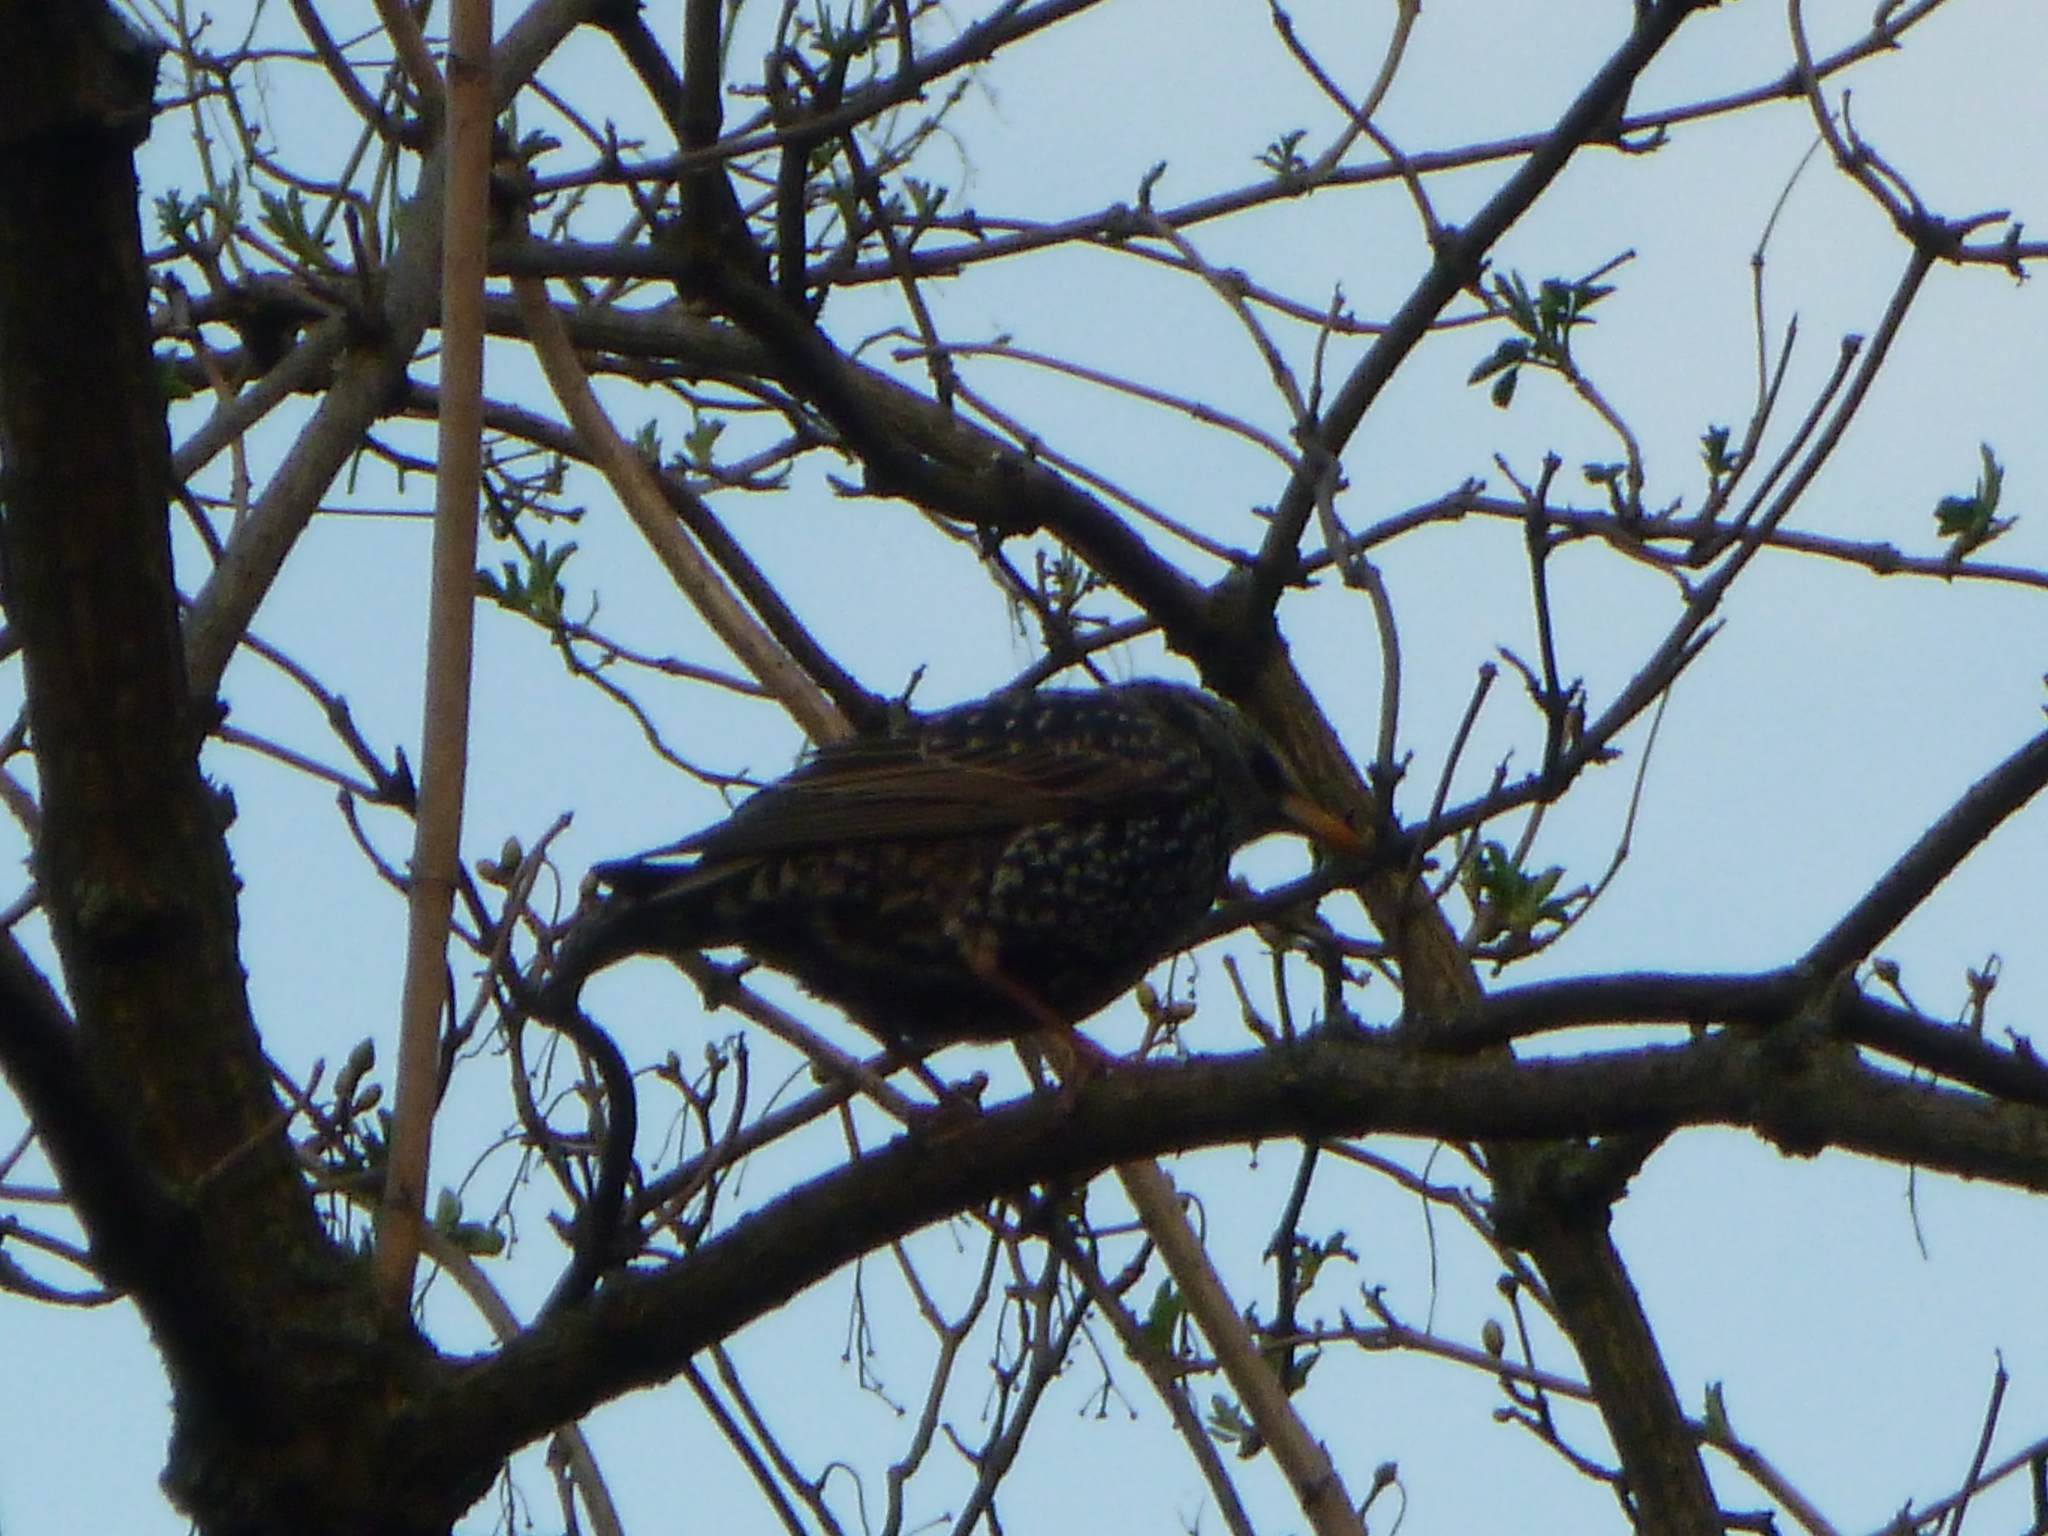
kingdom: Animalia
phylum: Chordata
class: Aves
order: Passeriformes
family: Sturnidae
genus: Sturnus
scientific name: Sturnus vulgaris
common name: Common starling
